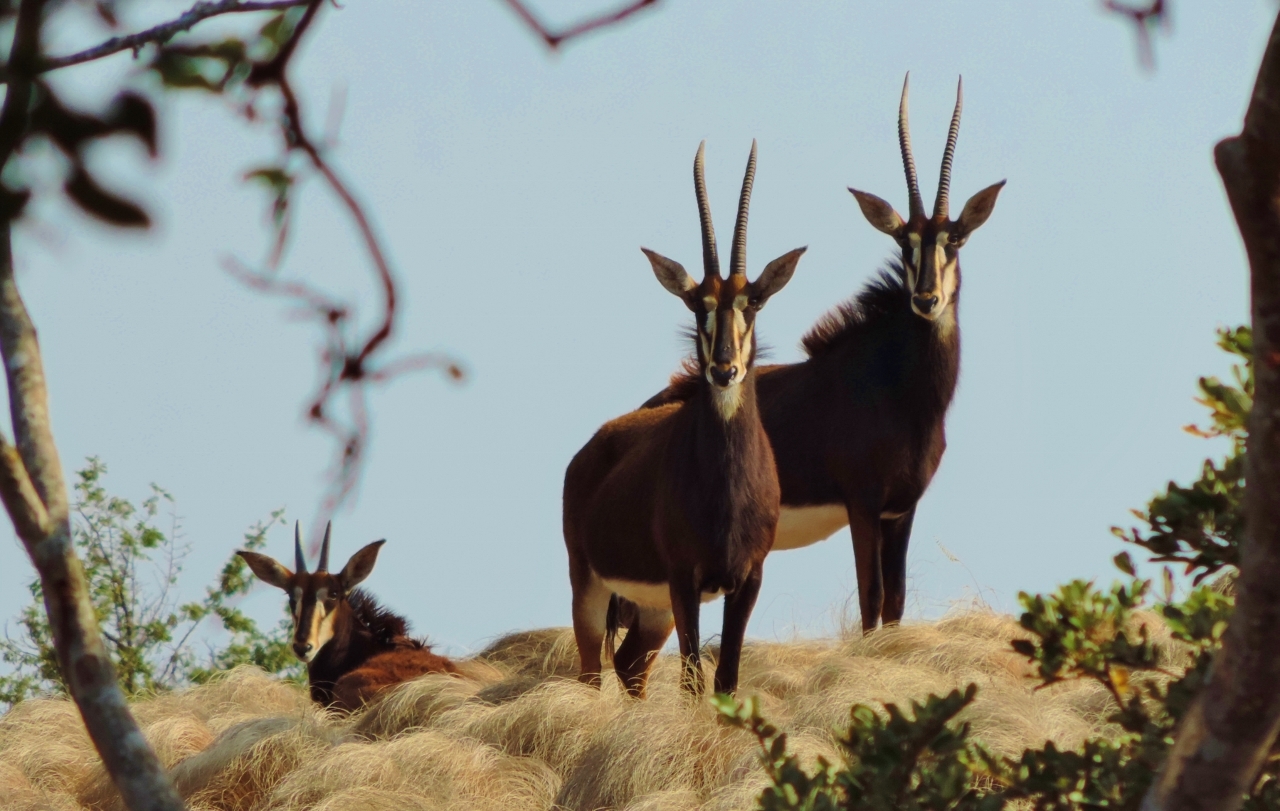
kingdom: Animalia
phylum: Chordata
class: Mammalia
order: Artiodactyla
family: Bovidae
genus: Hippotragus
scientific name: Hippotragus niger
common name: Sable antelope
